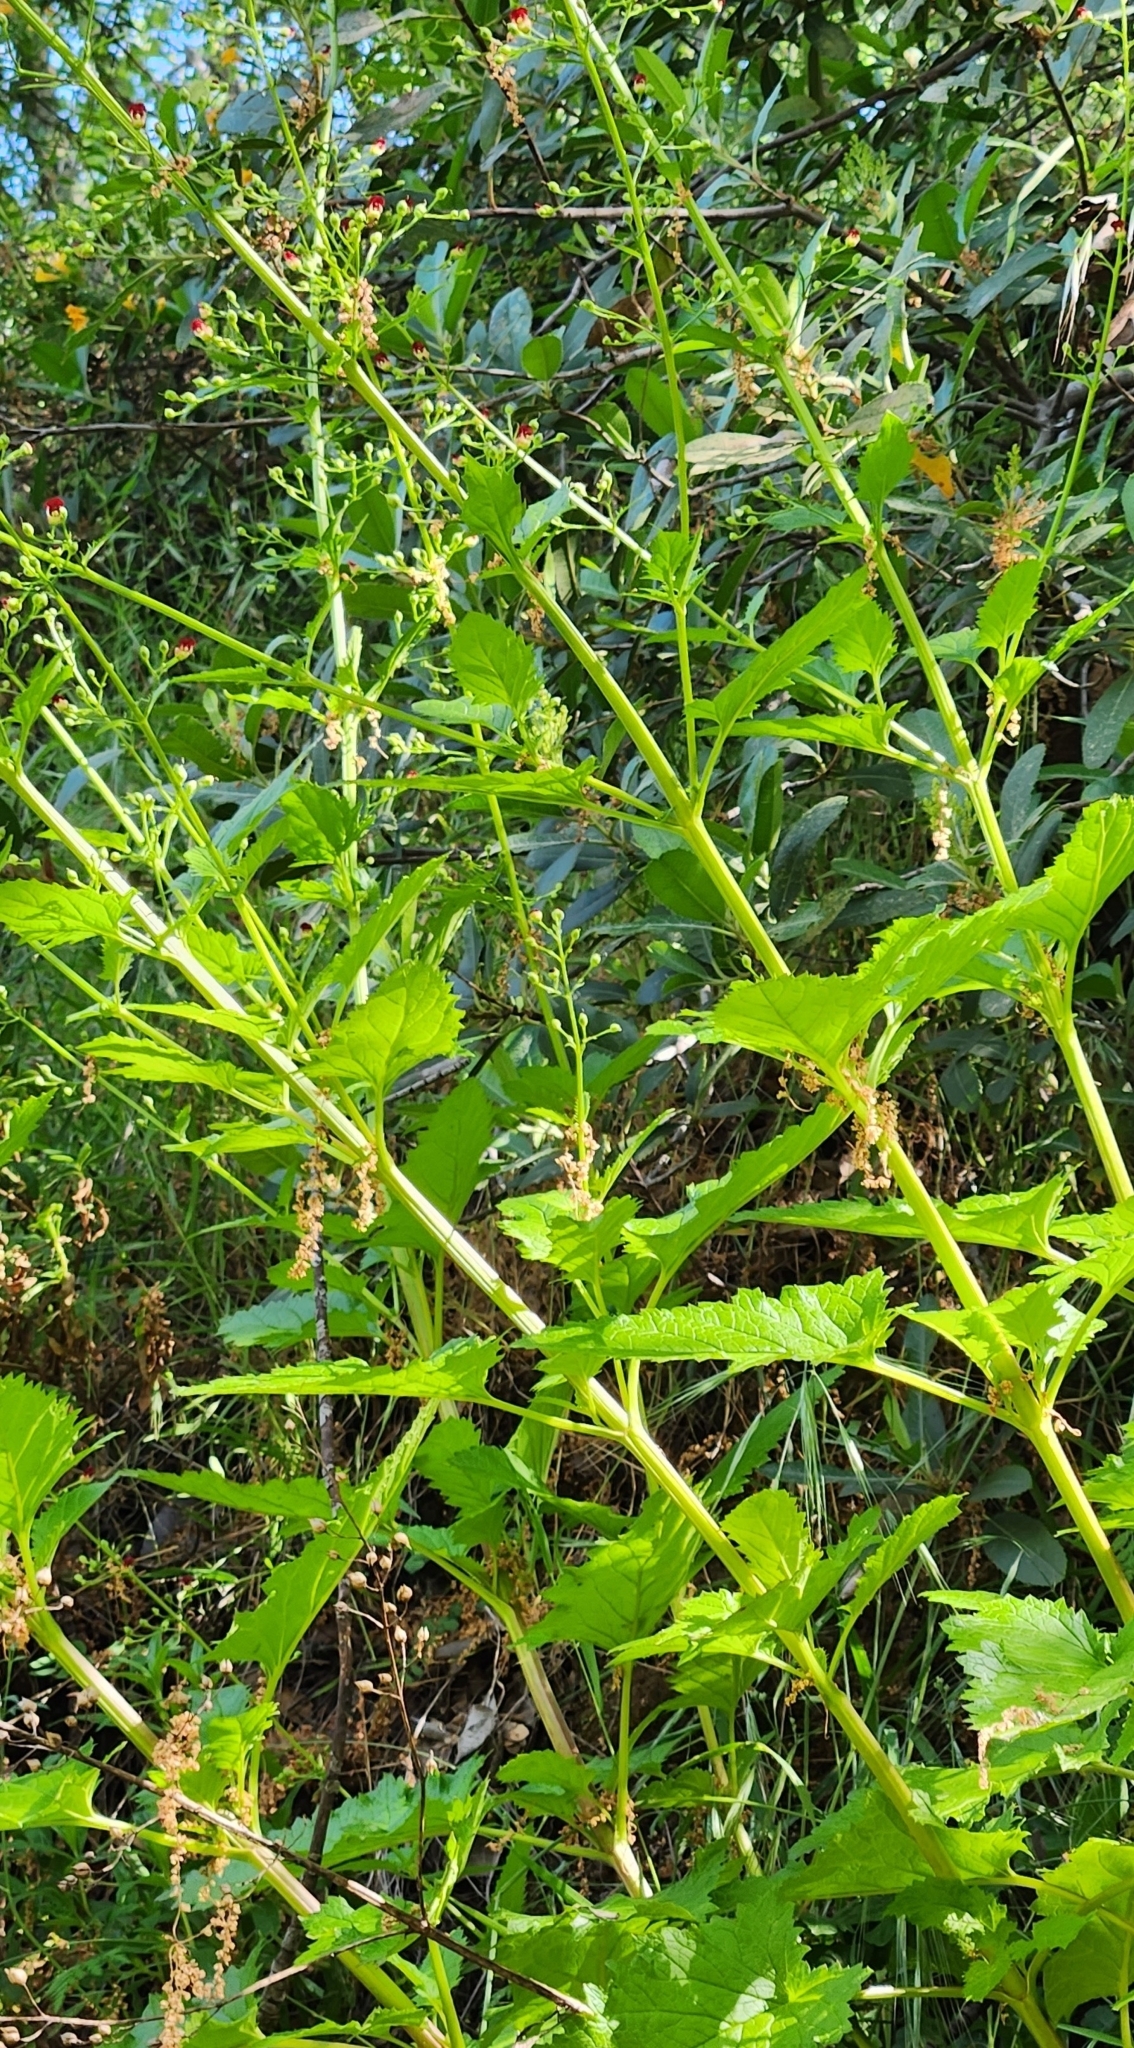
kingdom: Plantae
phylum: Tracheophyta
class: Magnoliopsida
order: Lamiales
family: Scrophulariaceae
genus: Scrophularia
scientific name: Scrophularia californica
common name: California figwort
